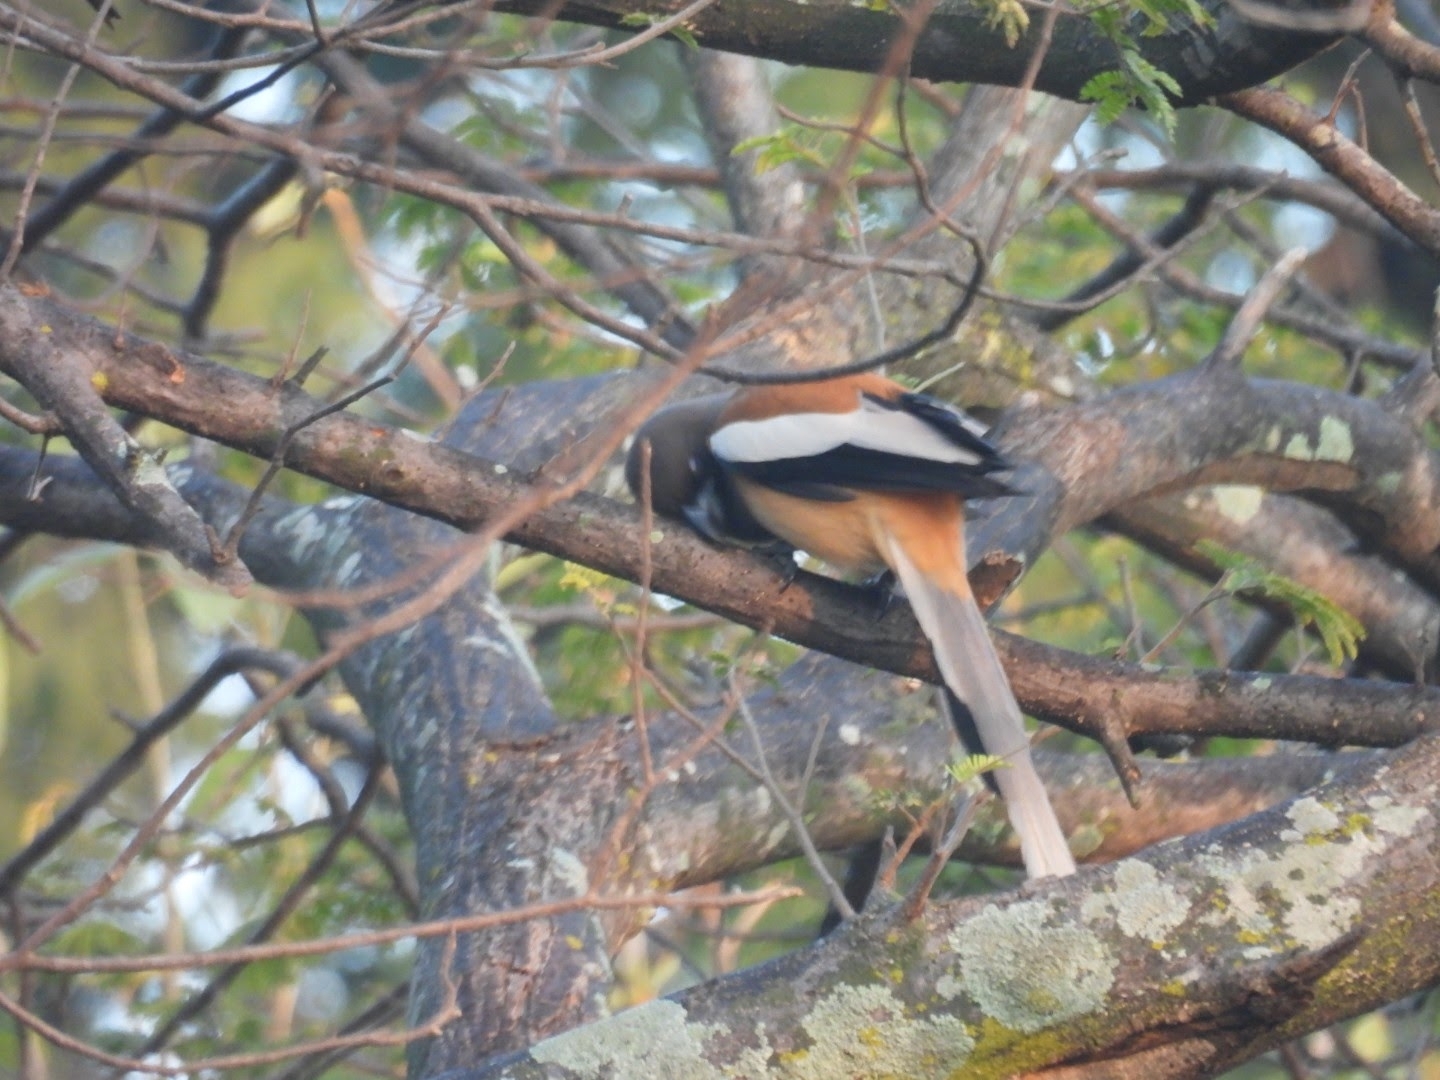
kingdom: Animalia
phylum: Chordata
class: Aves
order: Passeriformes
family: Corvidae
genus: Dendrocitta
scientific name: Dendrocitta vagabunda
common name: Rufous treepie
